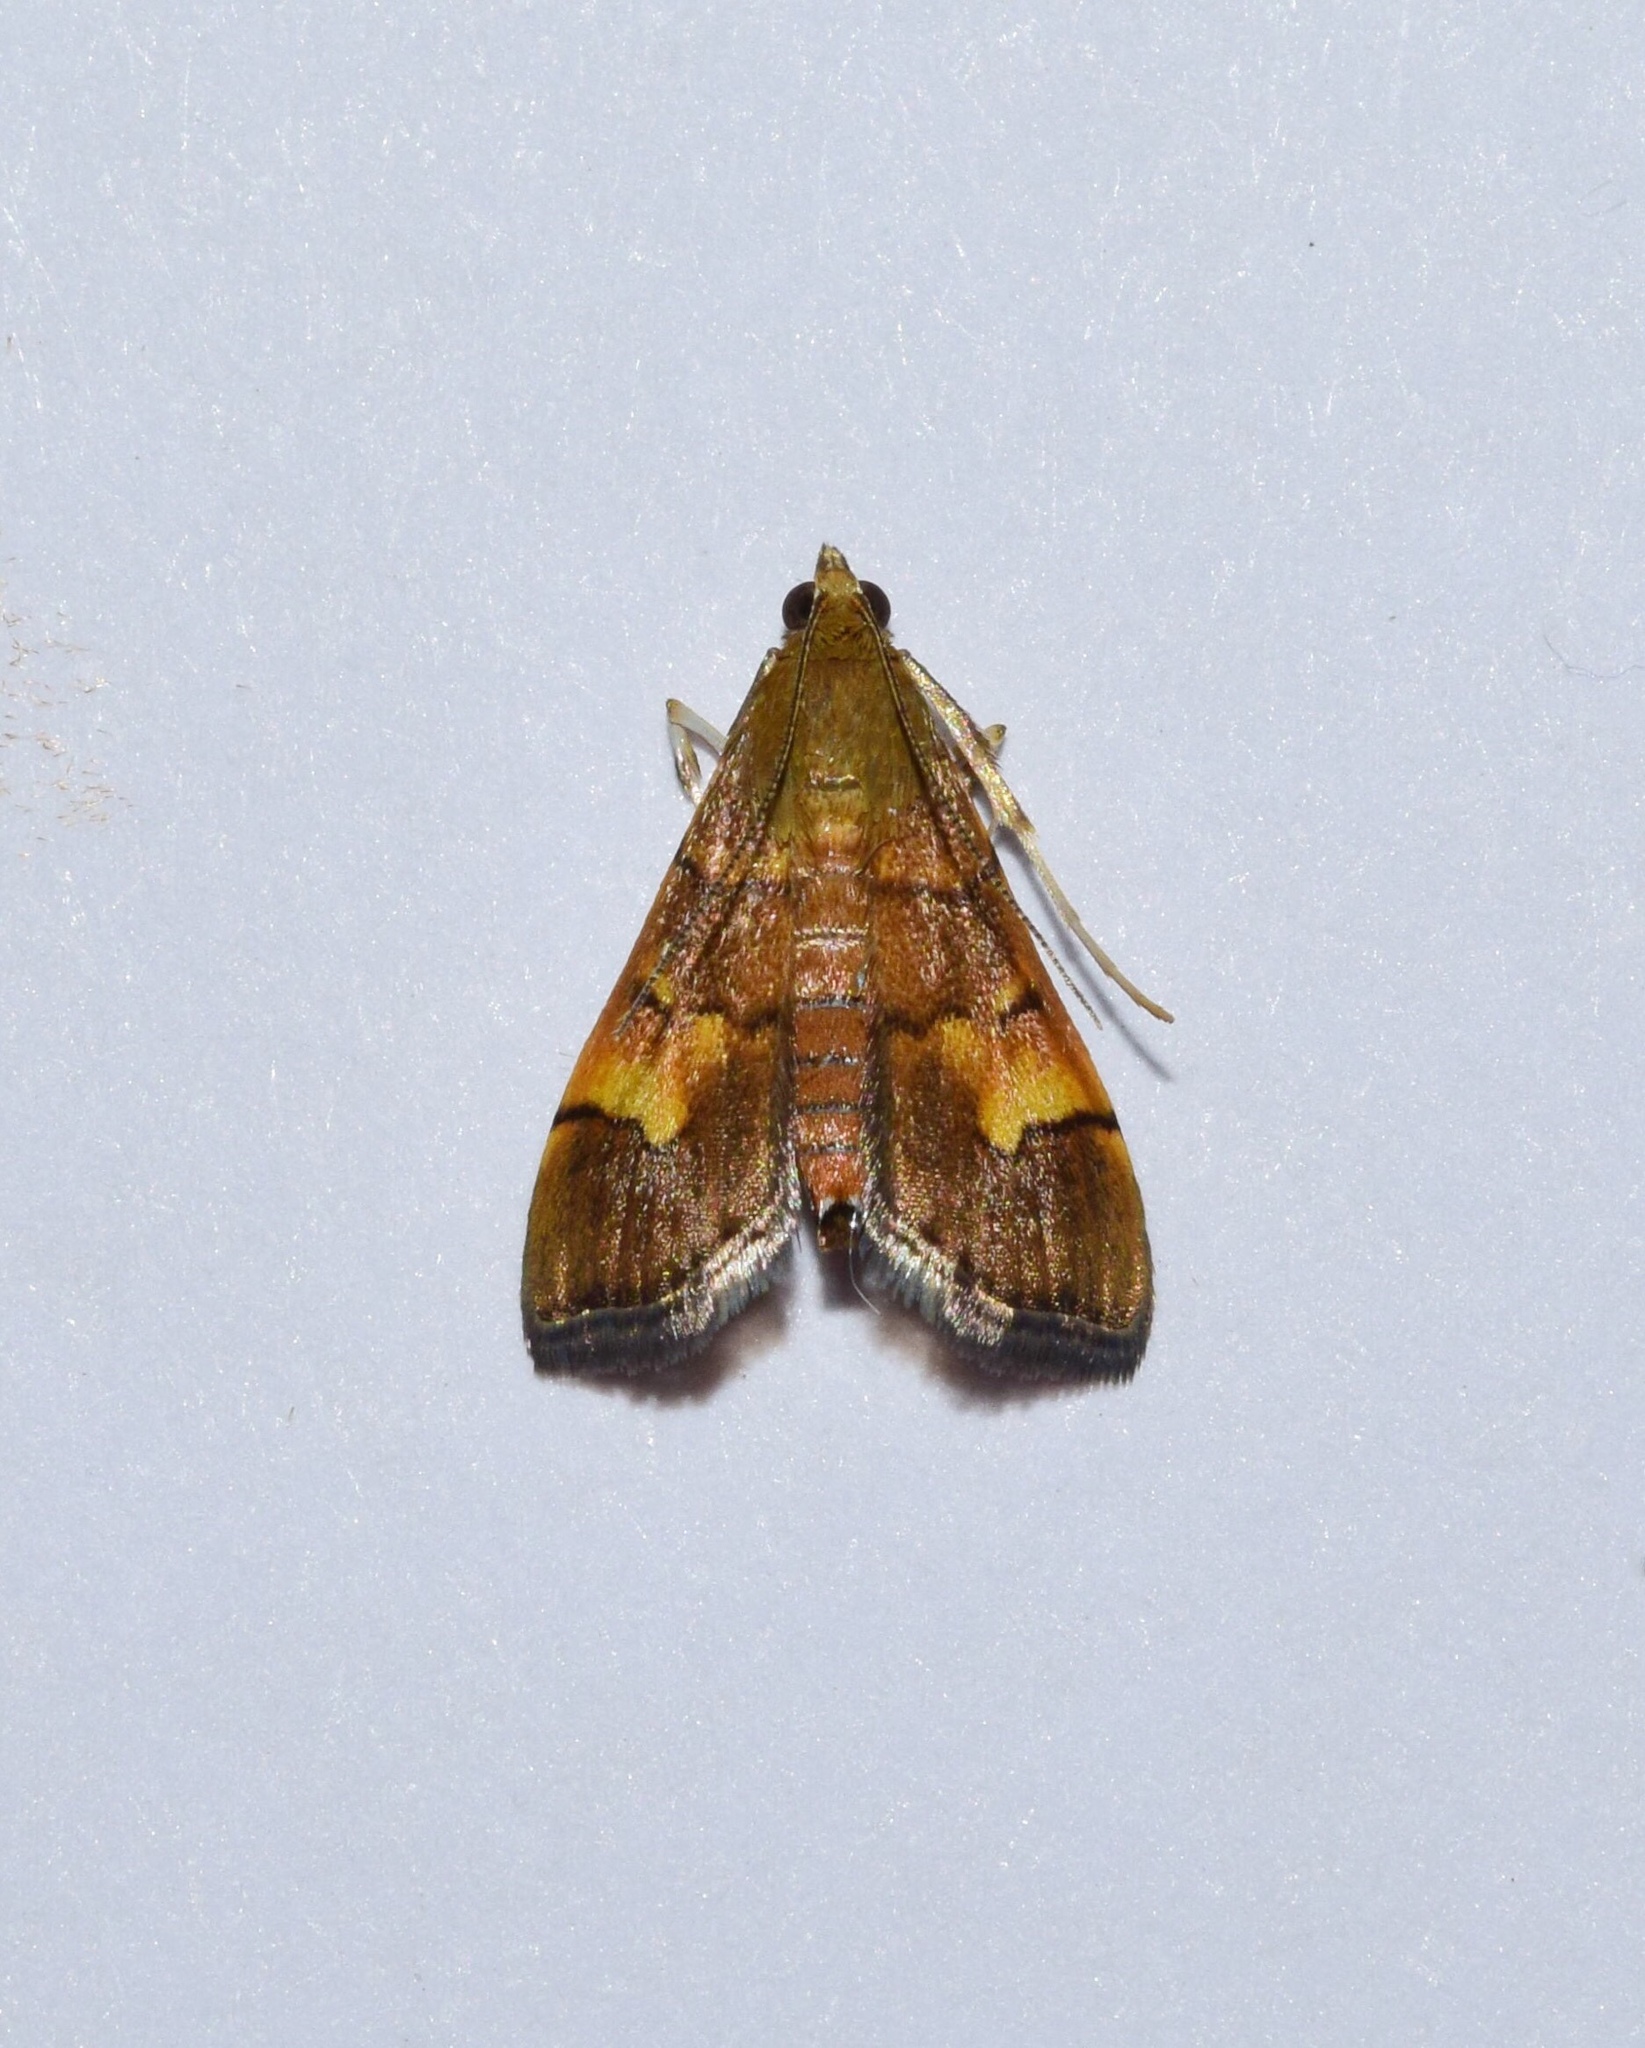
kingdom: Animalia
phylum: Arthropoda
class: Insecta
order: Lepidoptera
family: Crambidae
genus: Syngamia
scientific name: Syngamia latimarginalis
